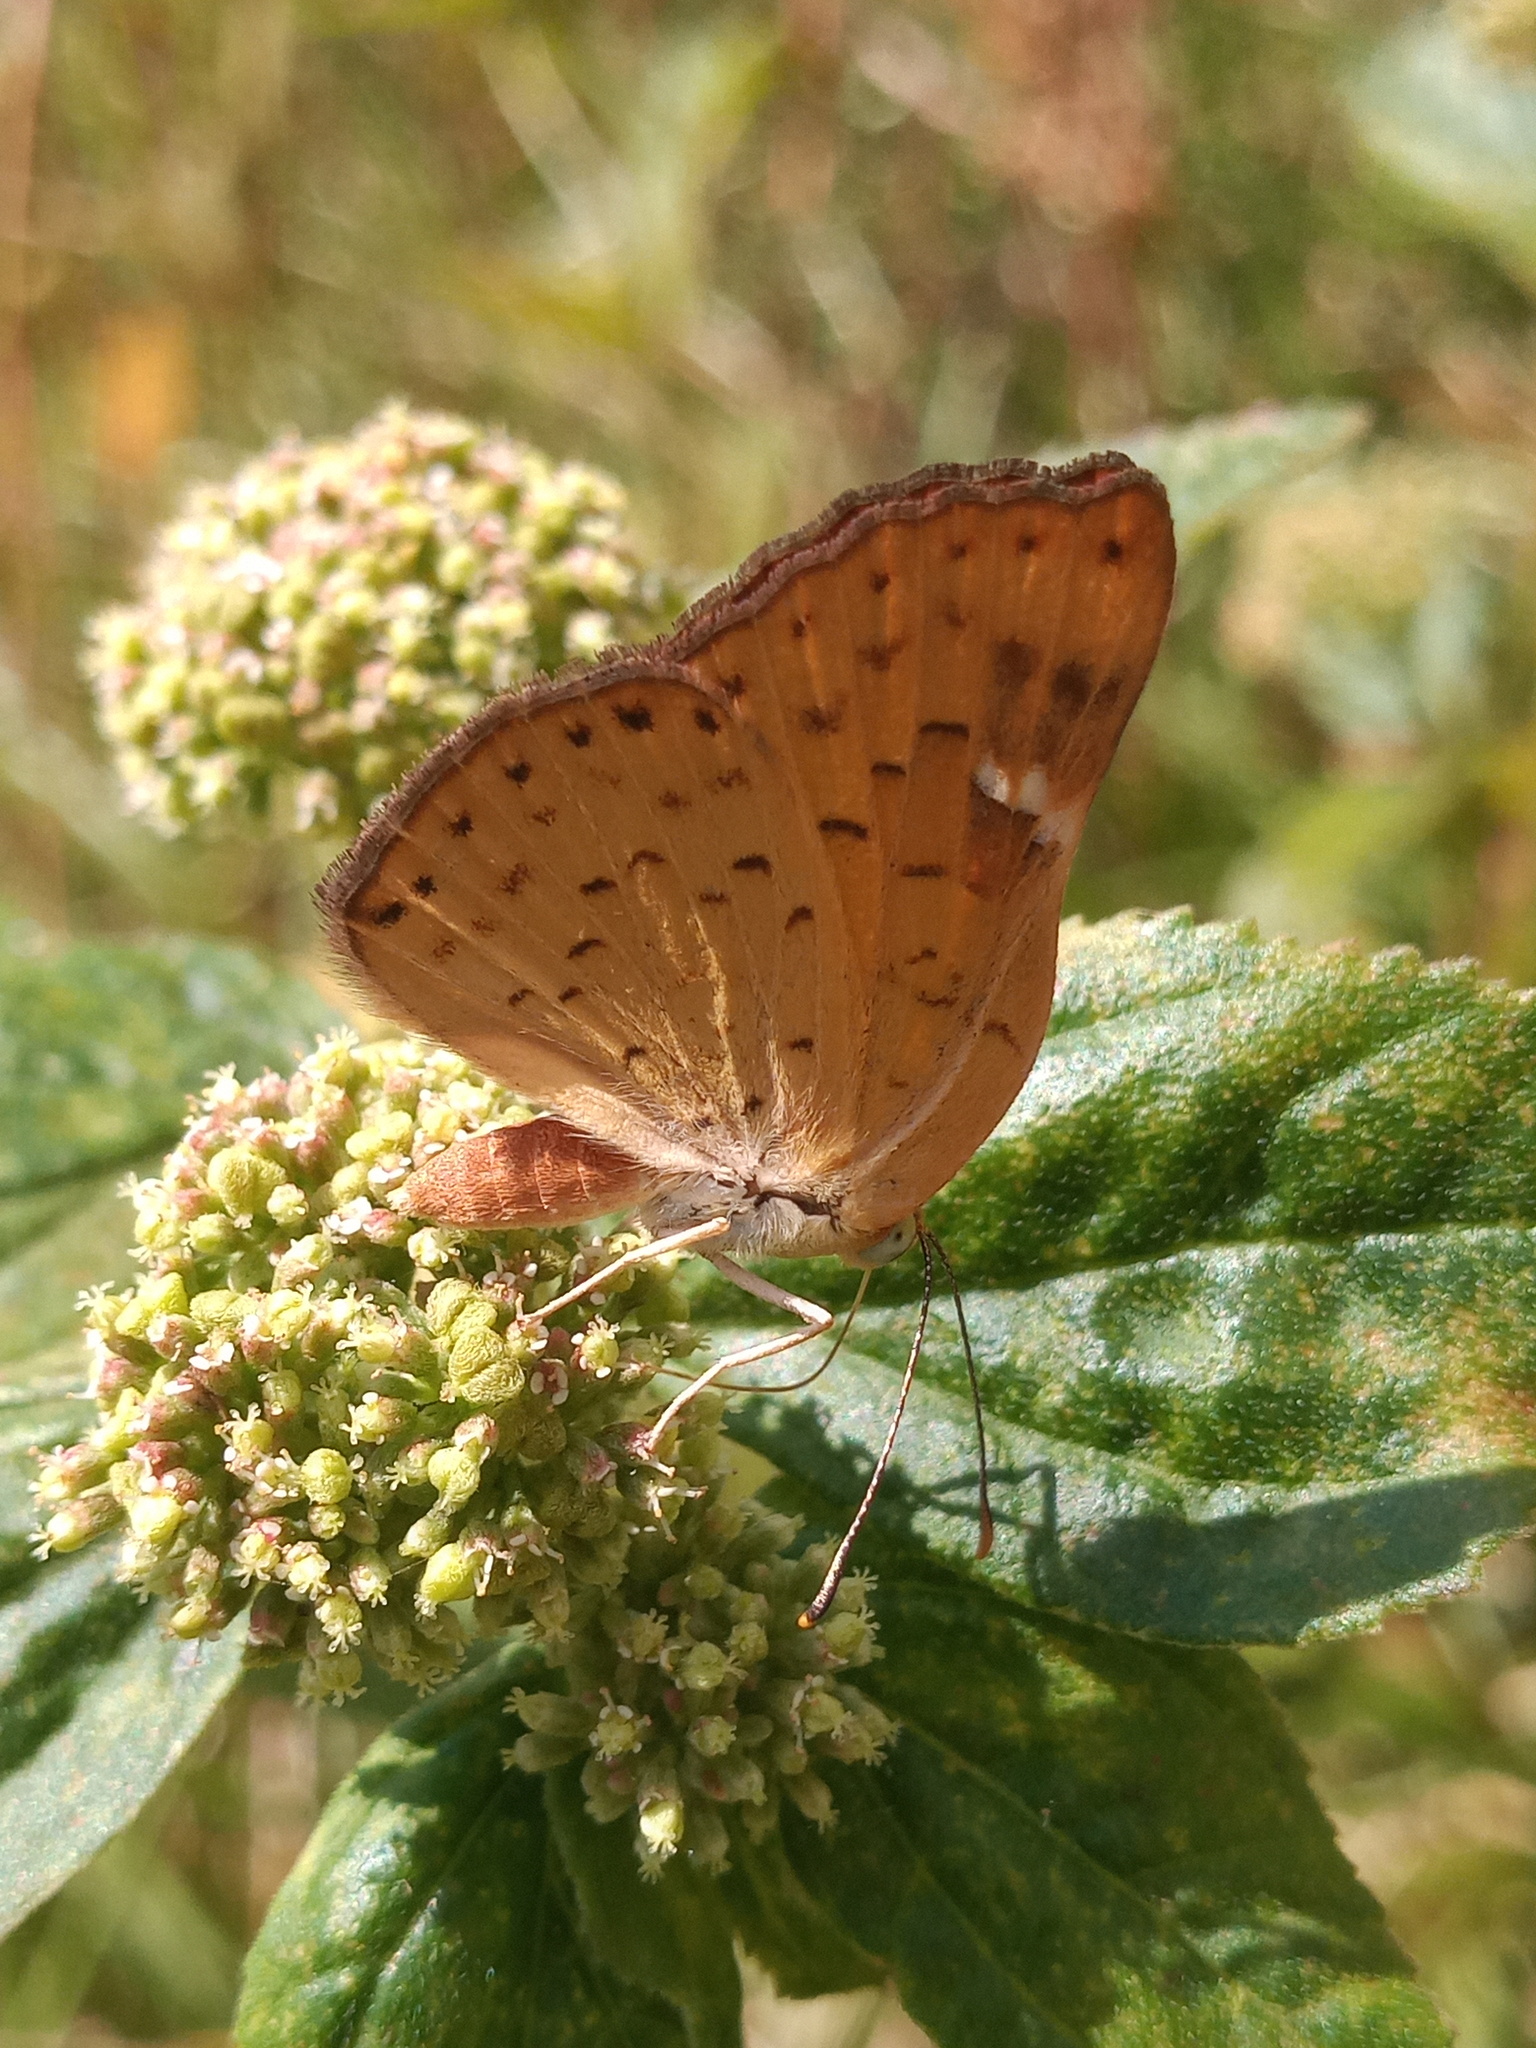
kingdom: Animalia
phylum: Arthropoda
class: Insecta
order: Lepidoptera
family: Riodinidae
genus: Curvie
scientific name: Curvie emesia
